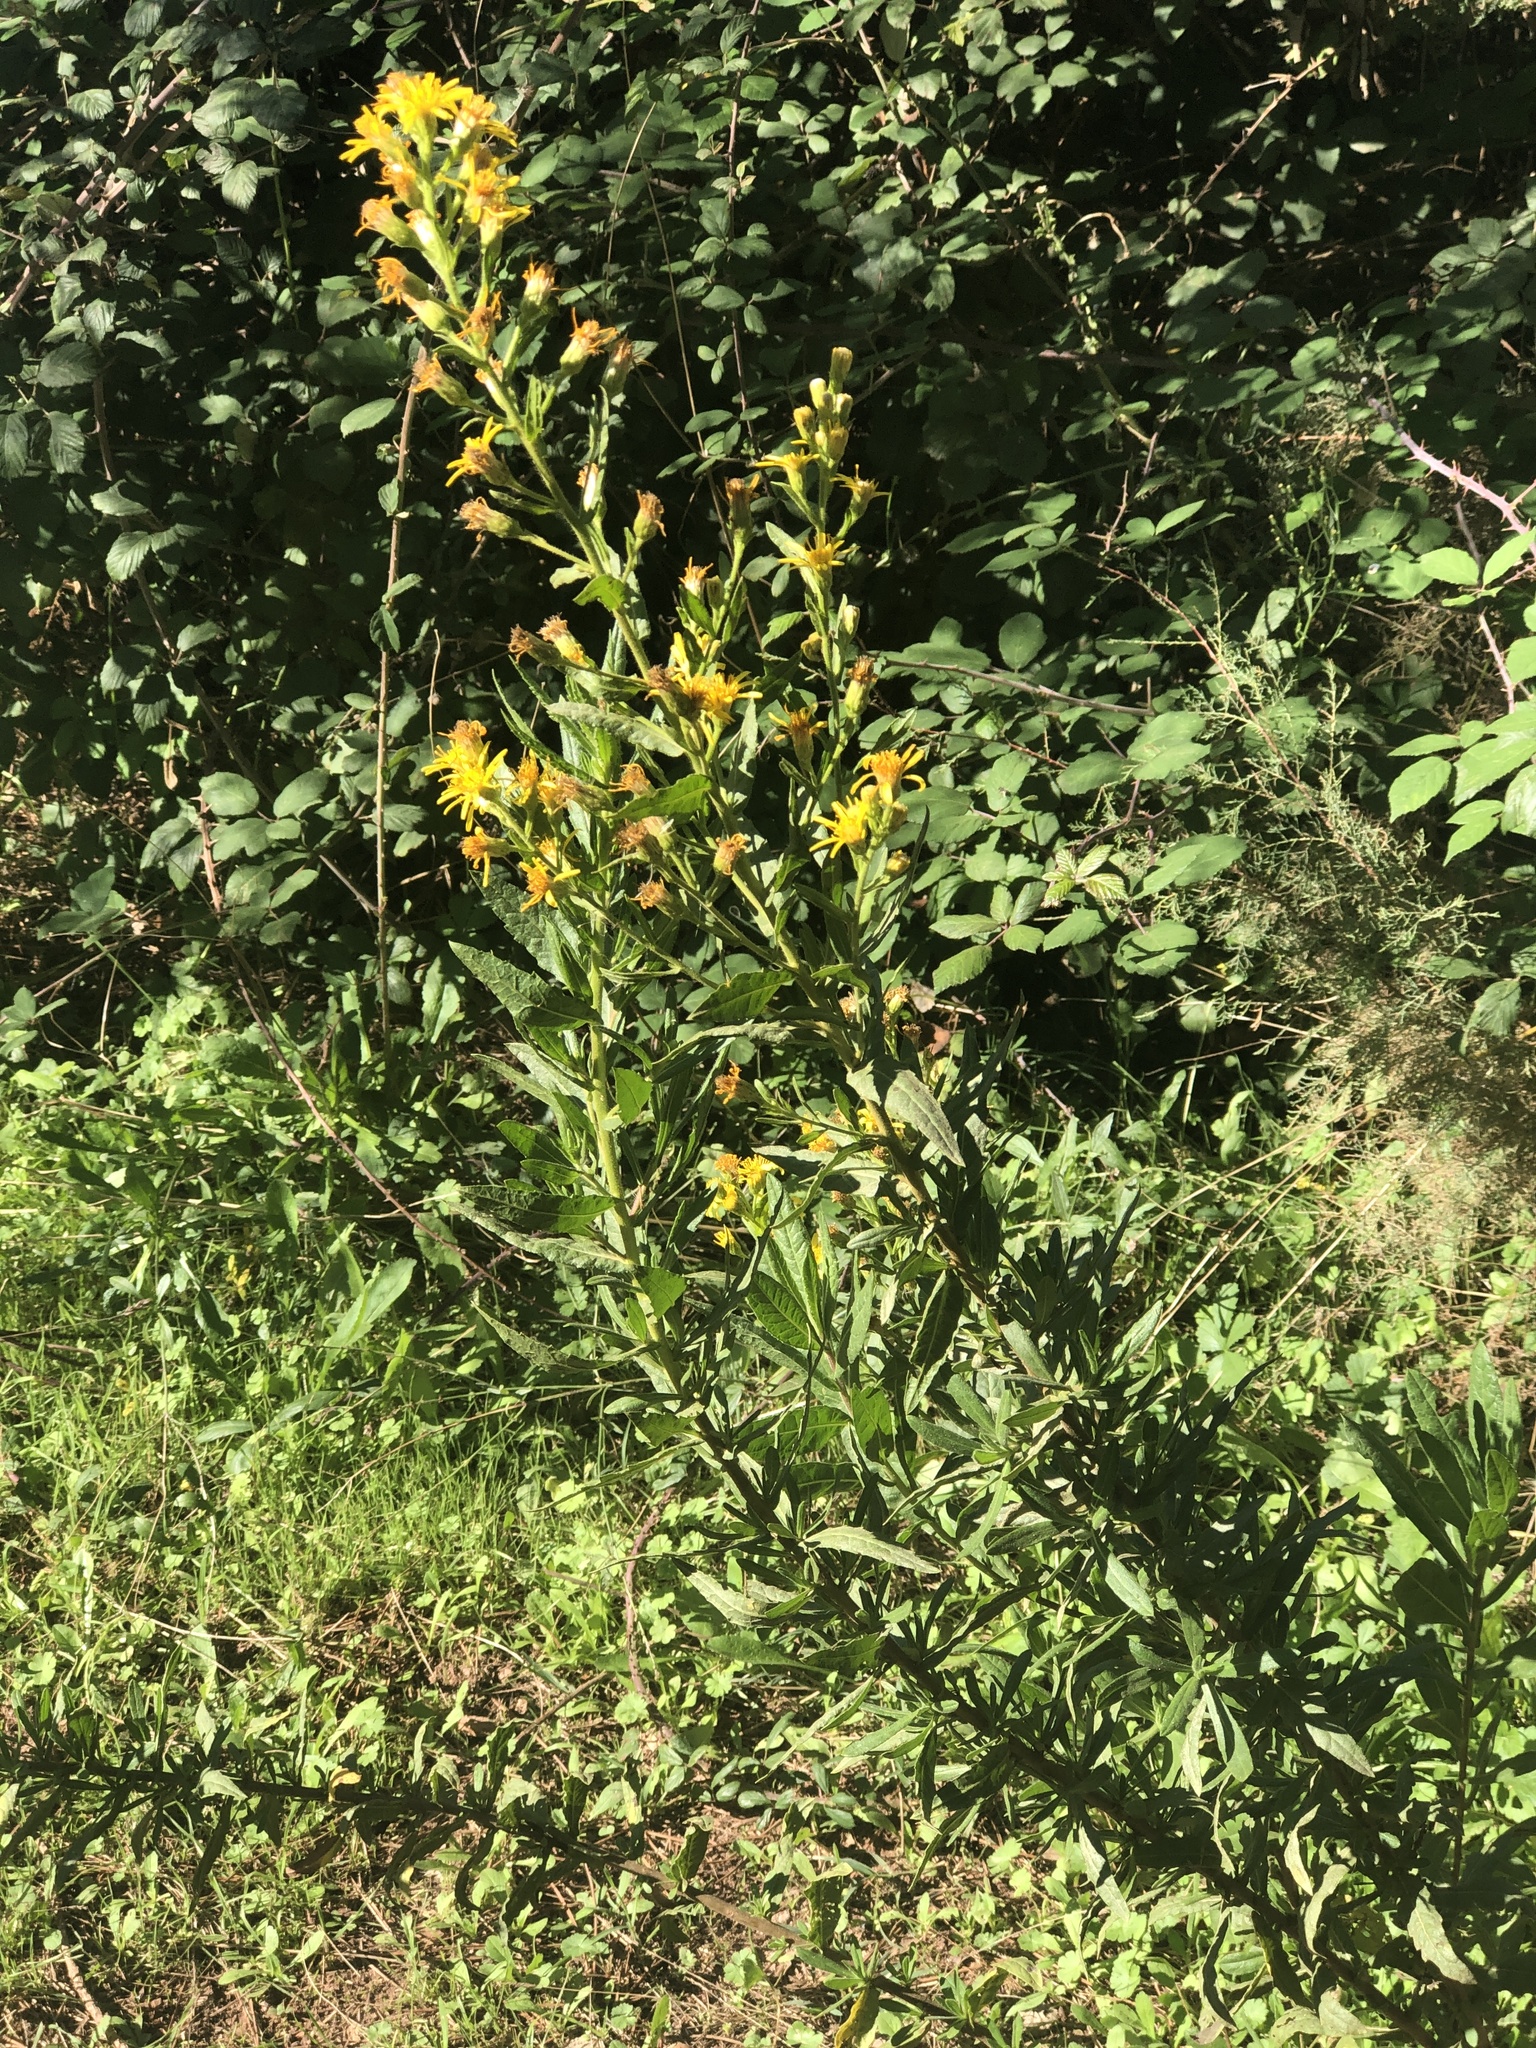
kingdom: Plantae
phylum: Tracheophyta
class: Magnoliopsida
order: Asterales
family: Asteraceae
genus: Dittrichia
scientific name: Dittrichia viscosa
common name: Woody fleabane
